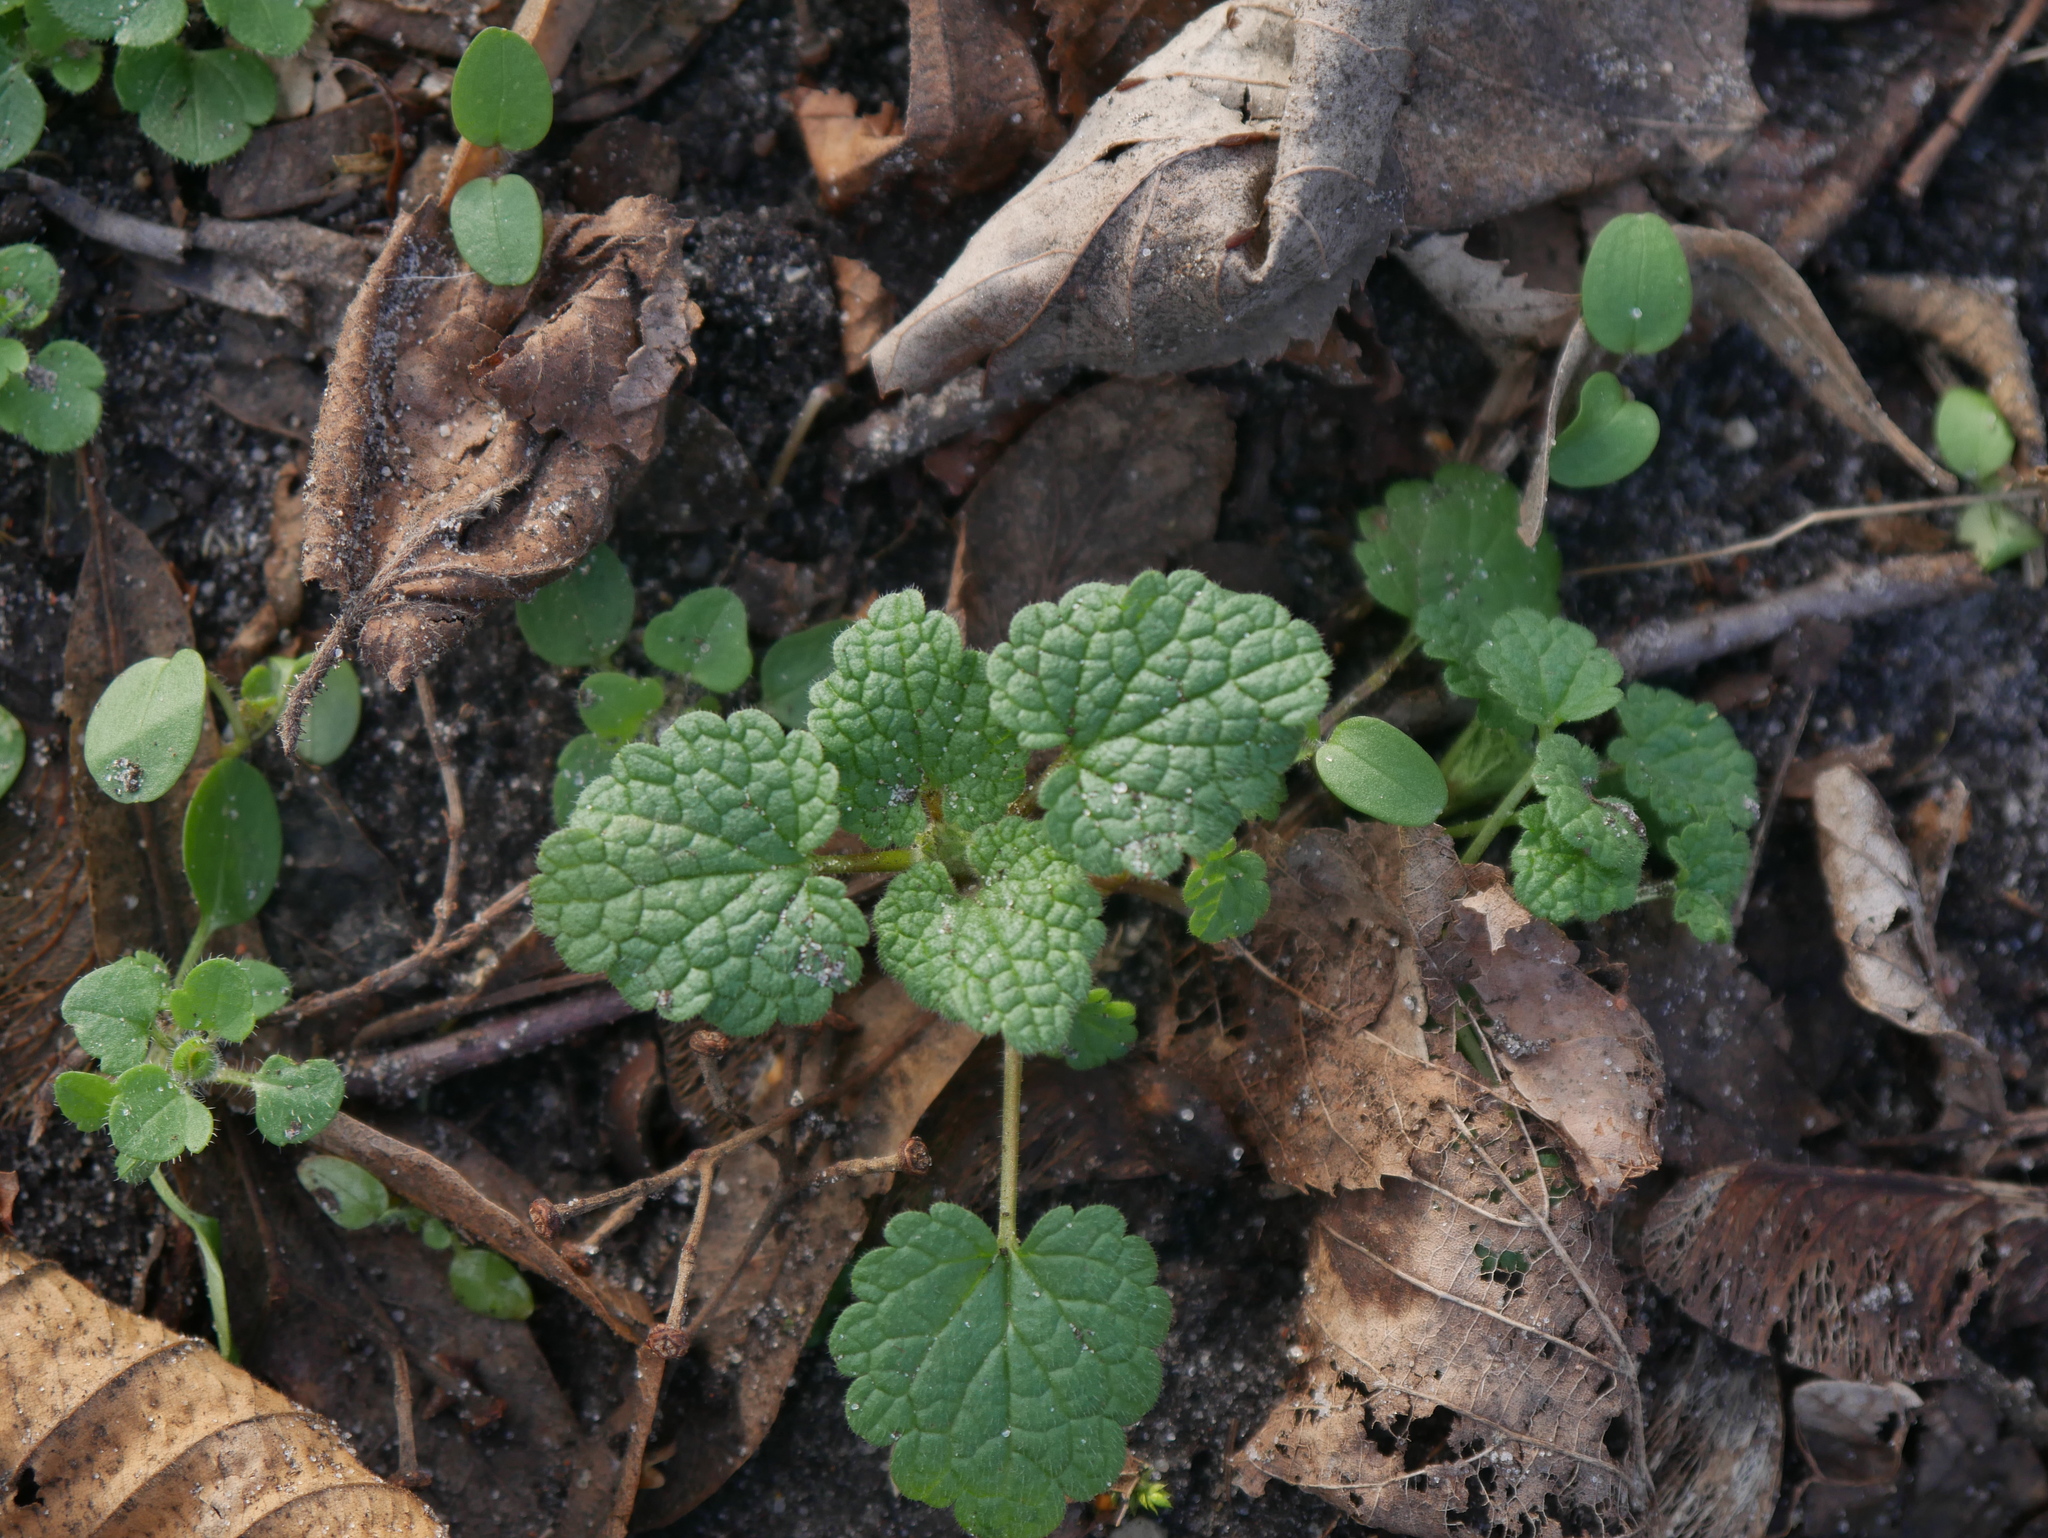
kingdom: Plantae
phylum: Tracheophyta
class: Magnoliopsida
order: Lamiales
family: Lamiaceae
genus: Lamium
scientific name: Lamium purpureum
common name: Red dead-nettle
